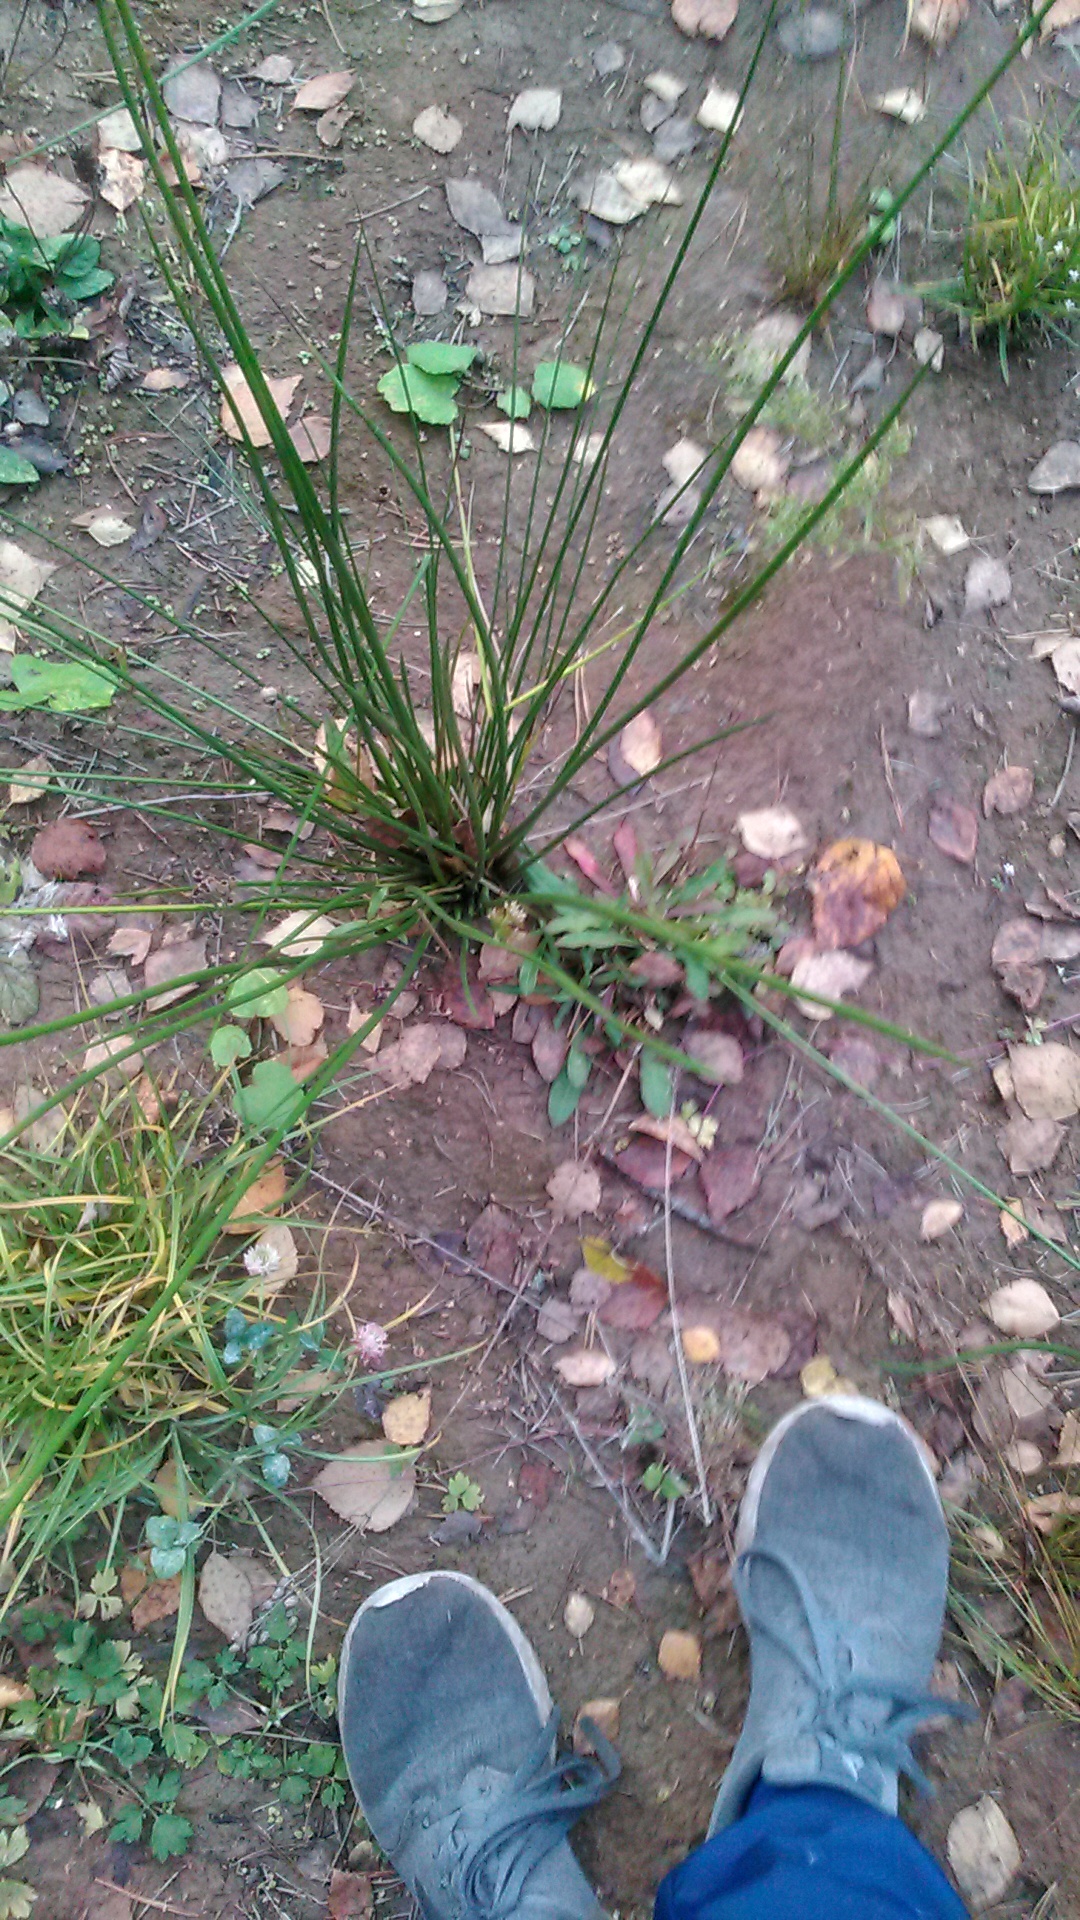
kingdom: Plantae
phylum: Tracheophyta
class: Liliopsida
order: Poales
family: Juncaceae
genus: Juncus
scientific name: Juncus effusus
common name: Soft rush
